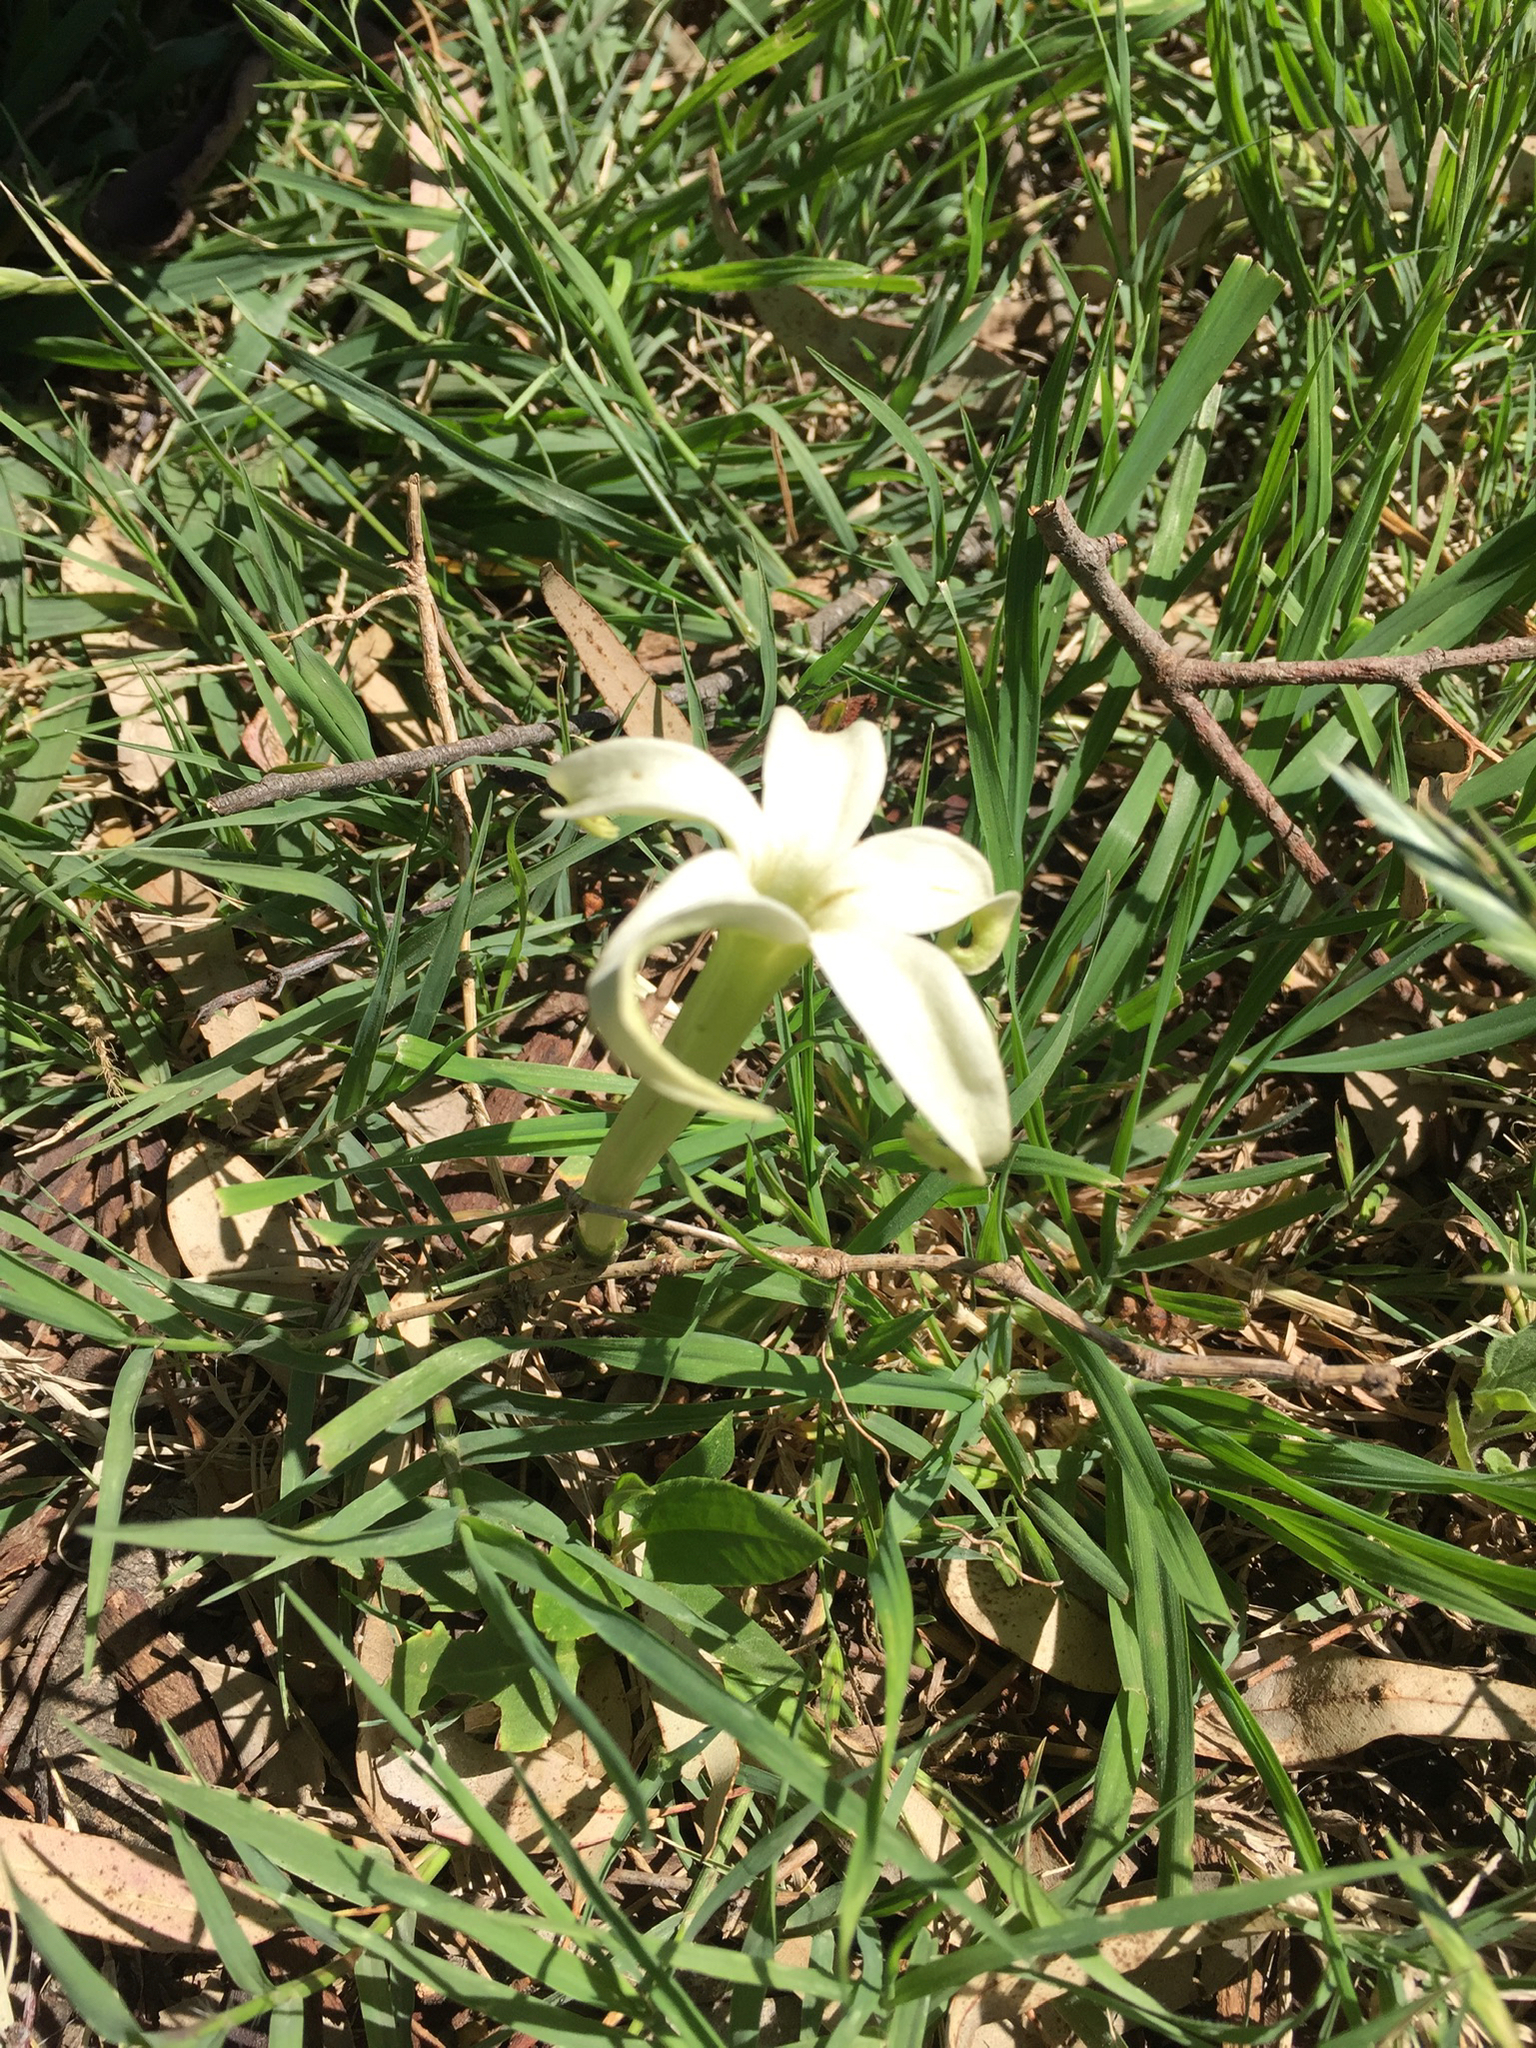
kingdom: Plantae
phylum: Tracheophyta
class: Magnoliopsida
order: Solanales
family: Solanaceae
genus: Jaborosa
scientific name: Jaborosa integrifolia
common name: Springblossom
